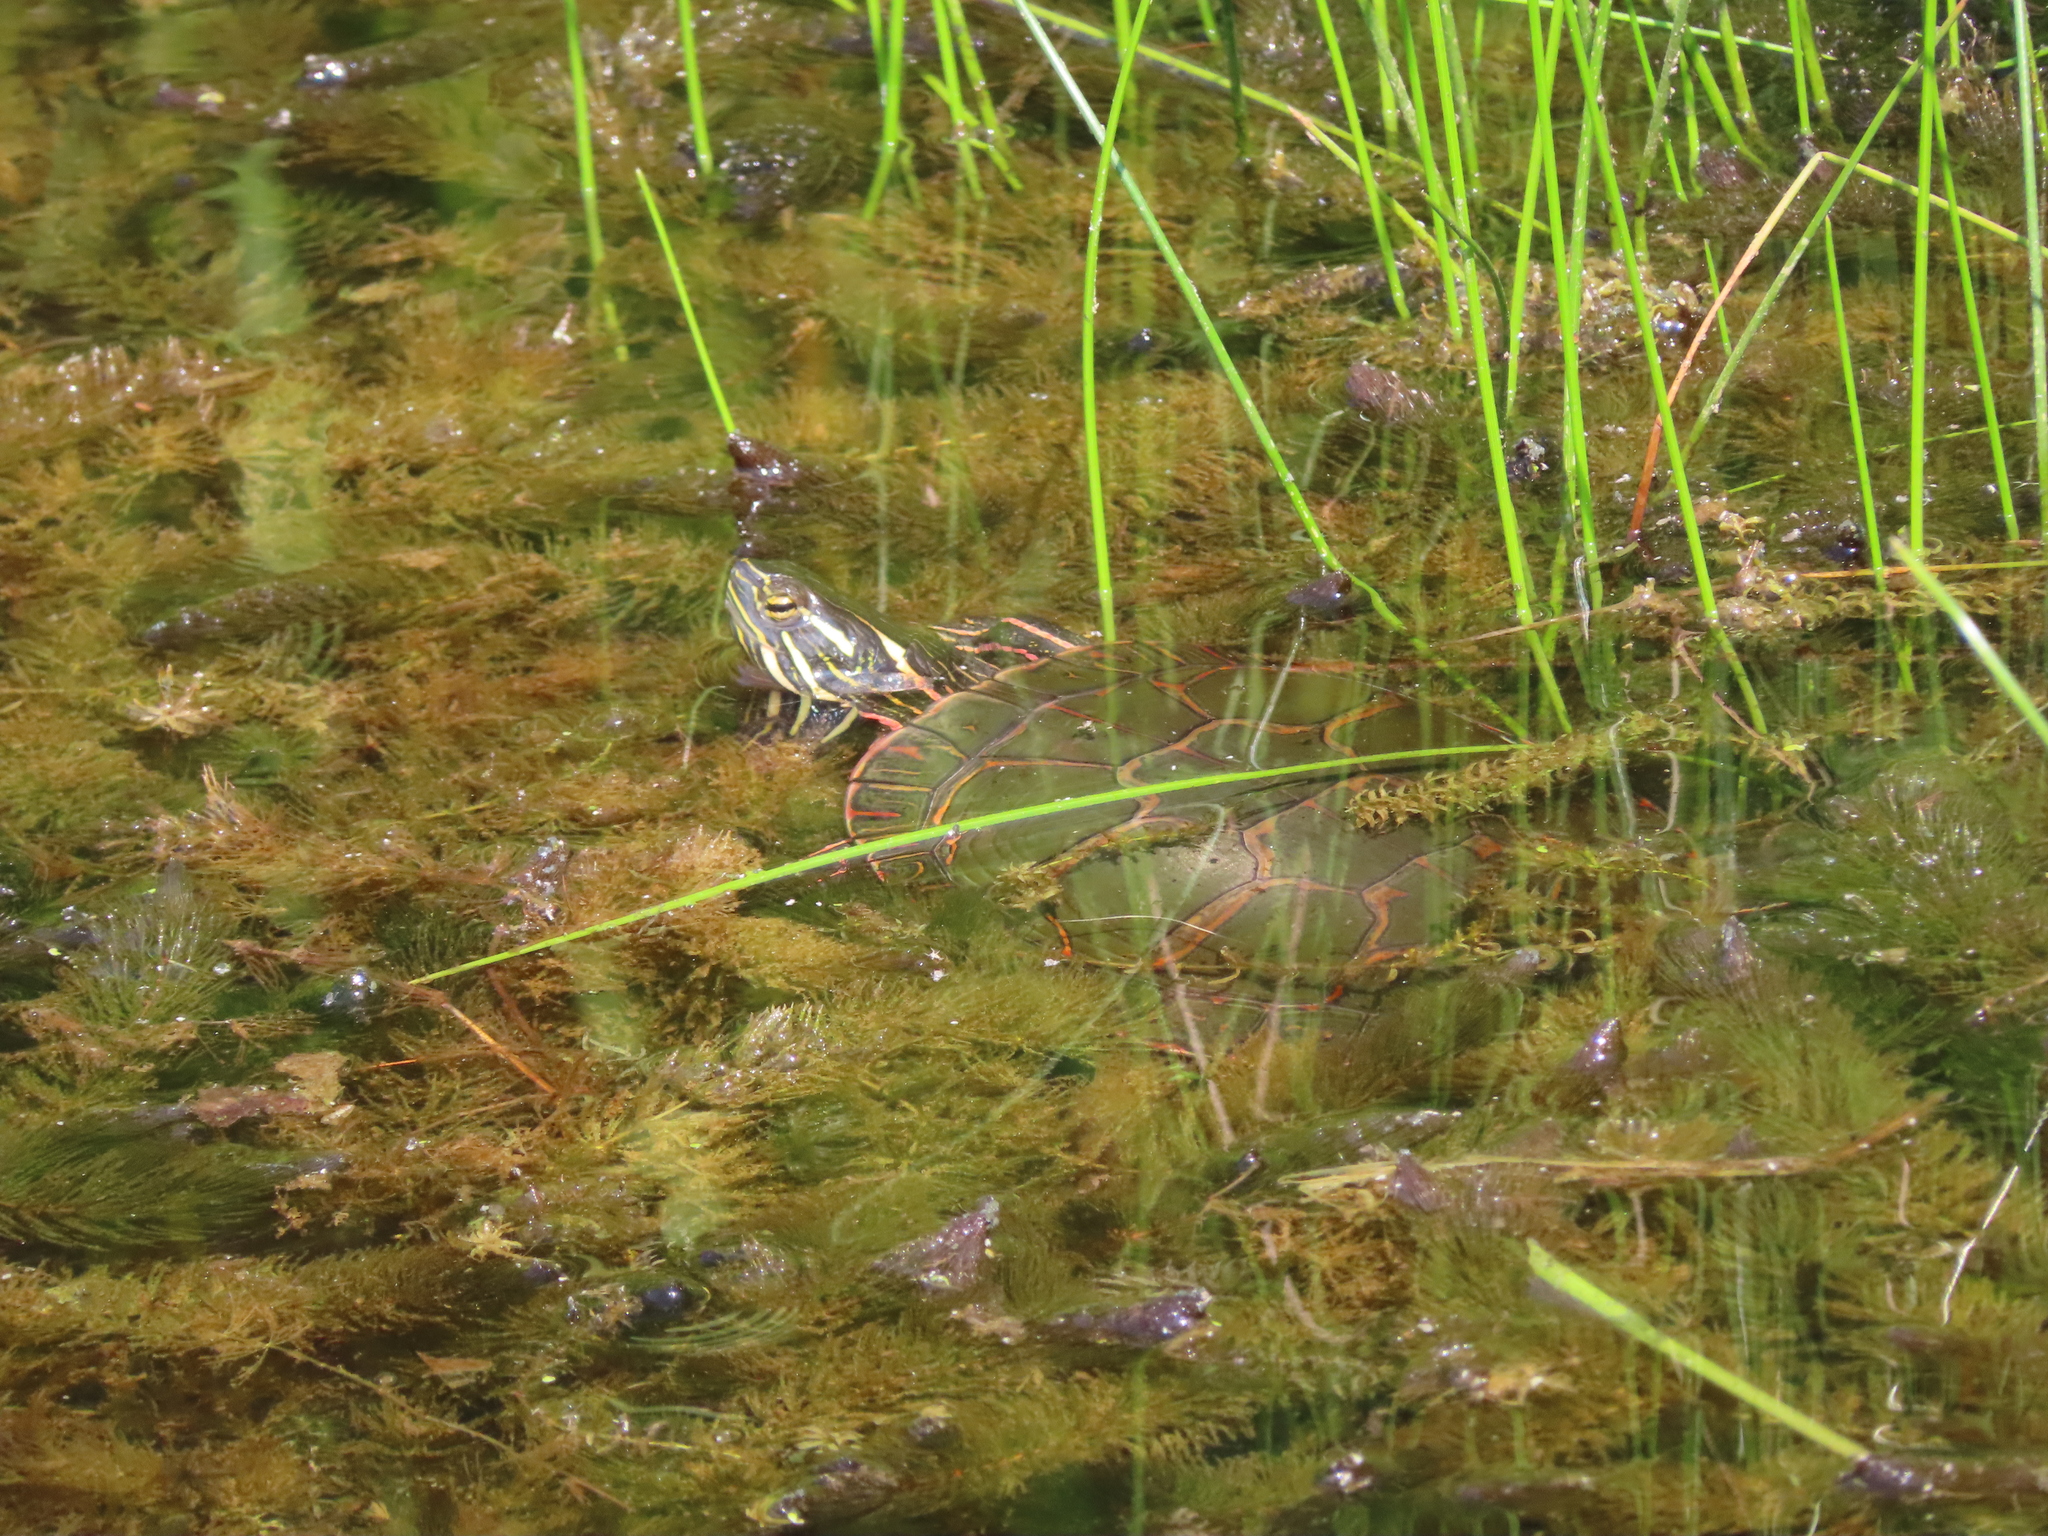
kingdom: Animalia
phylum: Chordata
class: Testudines
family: Emydidae
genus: Chrysemys
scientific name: Chrysemys picta
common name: Painted turtle
